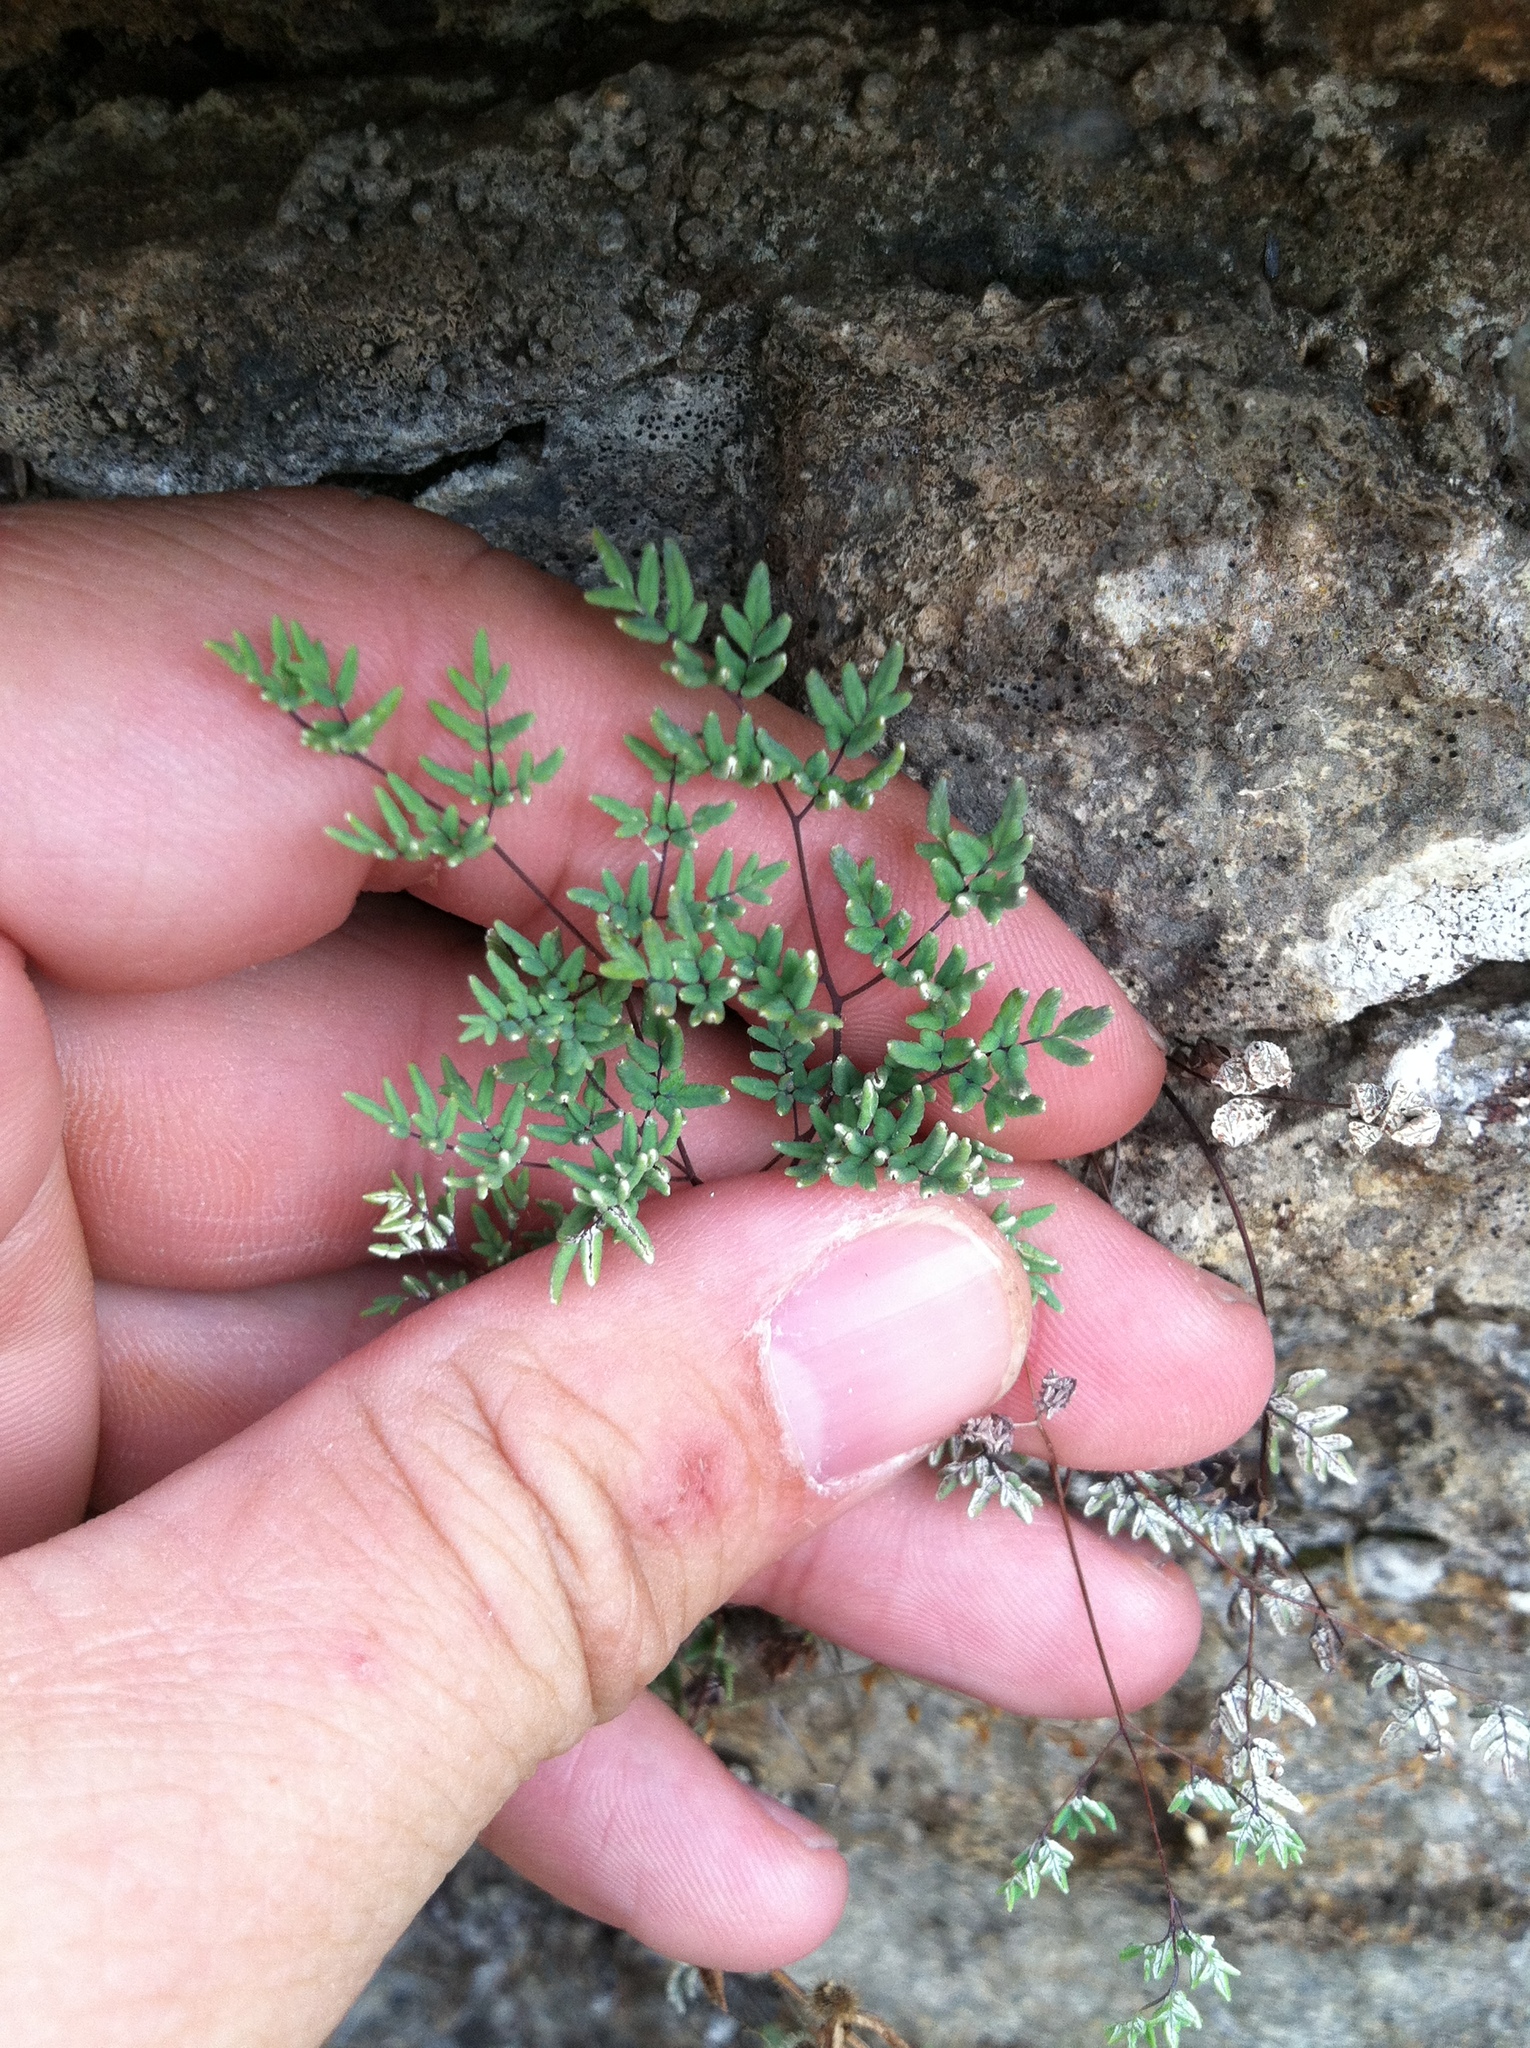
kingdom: Plantae
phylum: Tracheophyta
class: Polypodiopsida
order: Polypodiales
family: Pteridaceae
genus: Argyrochosma
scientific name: Argyrochosma dealbata
